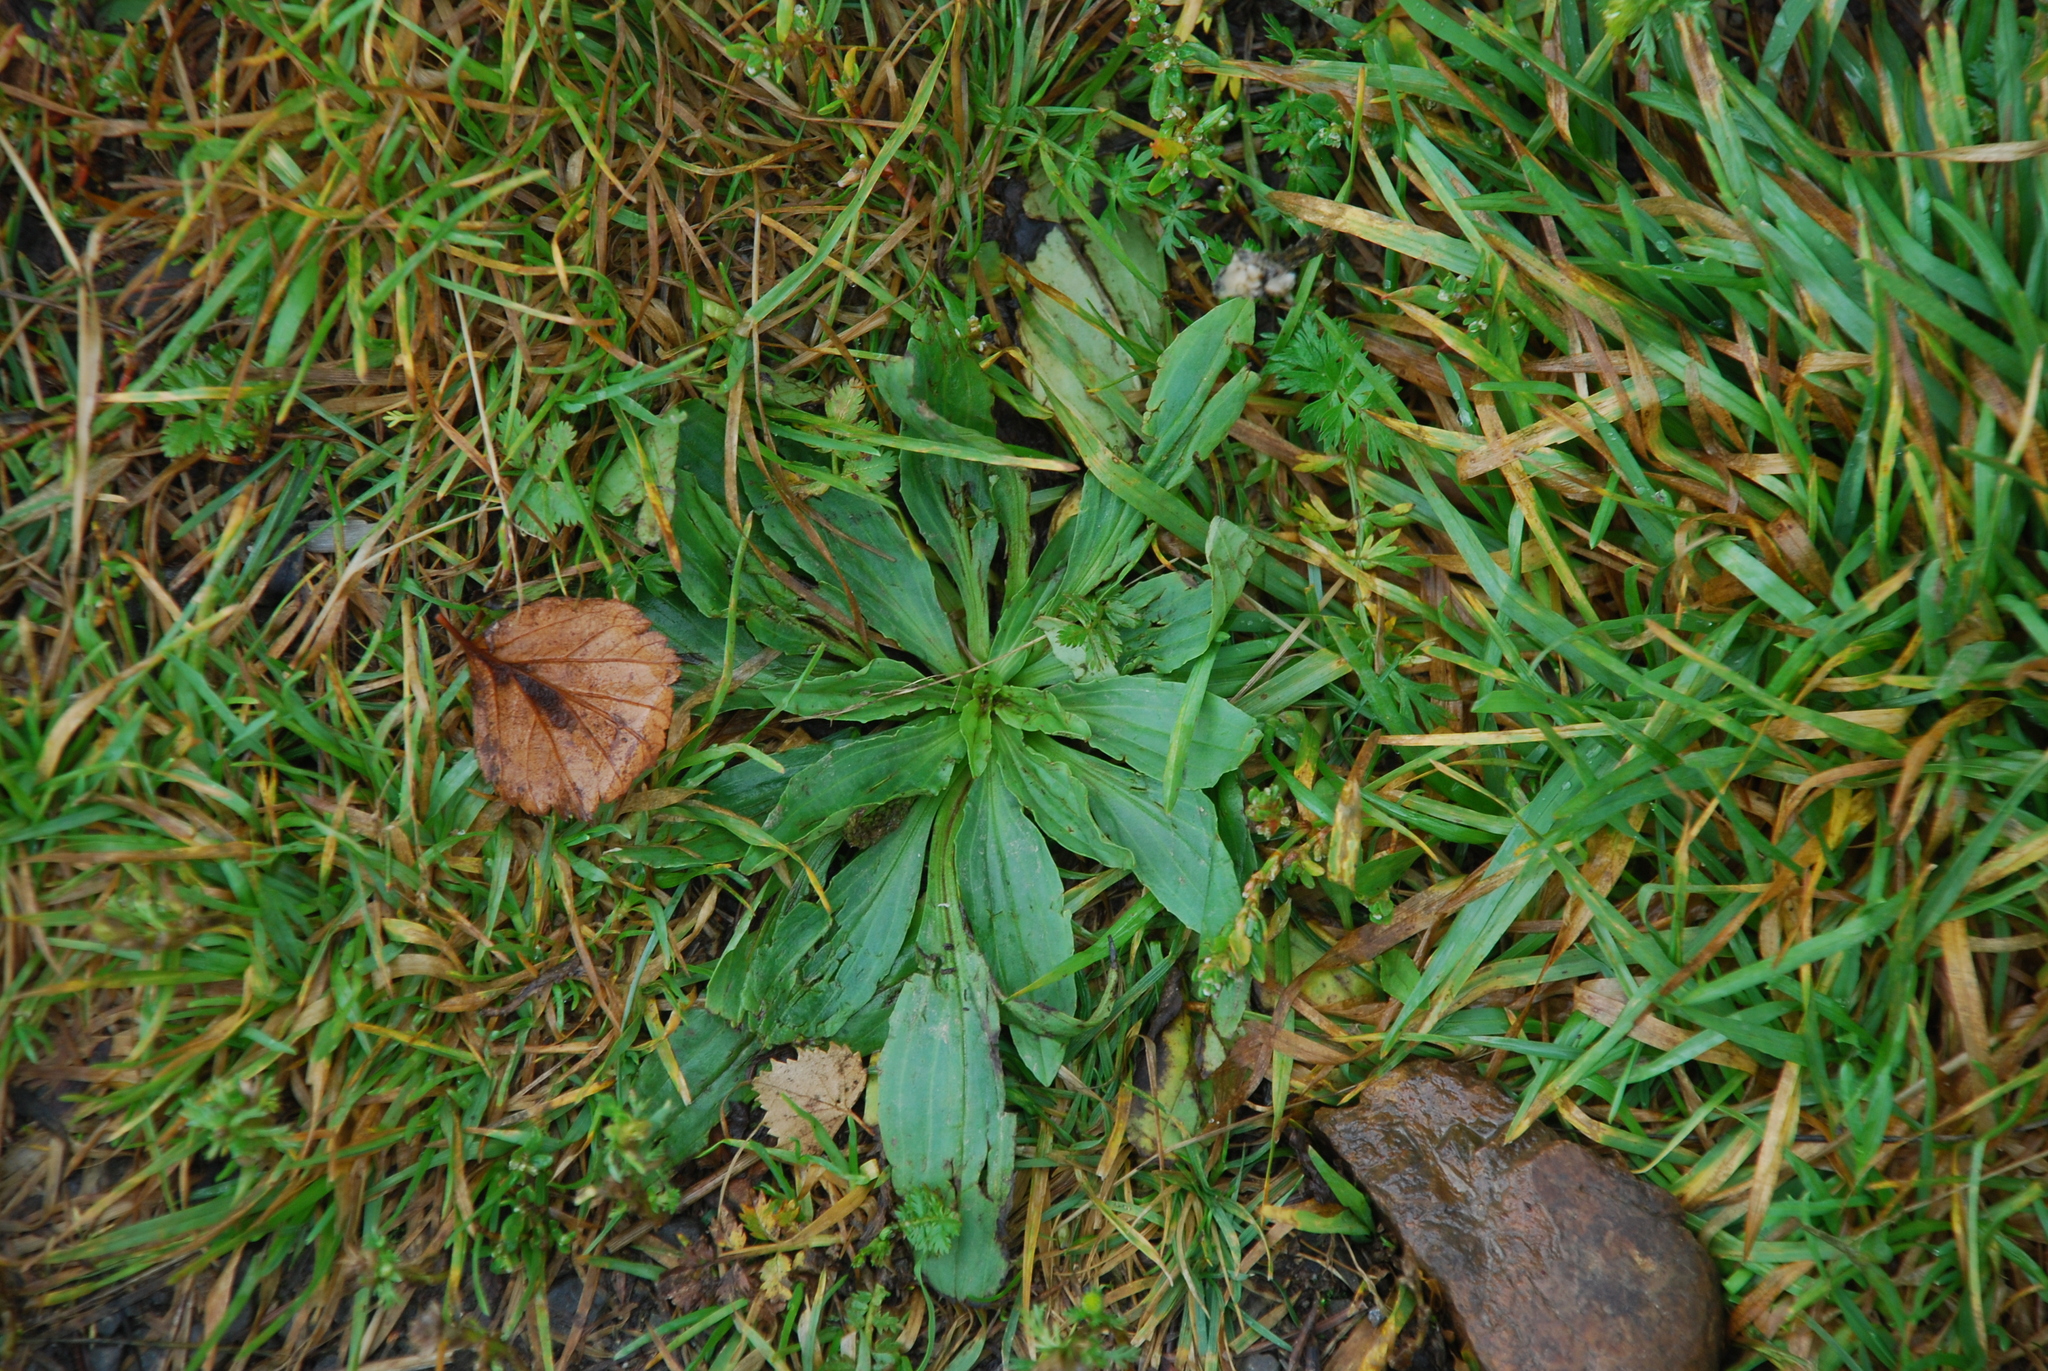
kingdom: Plantae
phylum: Tracheophyta
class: Magnoliopsida
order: Lamiales
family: Plantaginaceae
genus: Plantago
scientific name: Plantago depressa
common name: Depressed plantain
